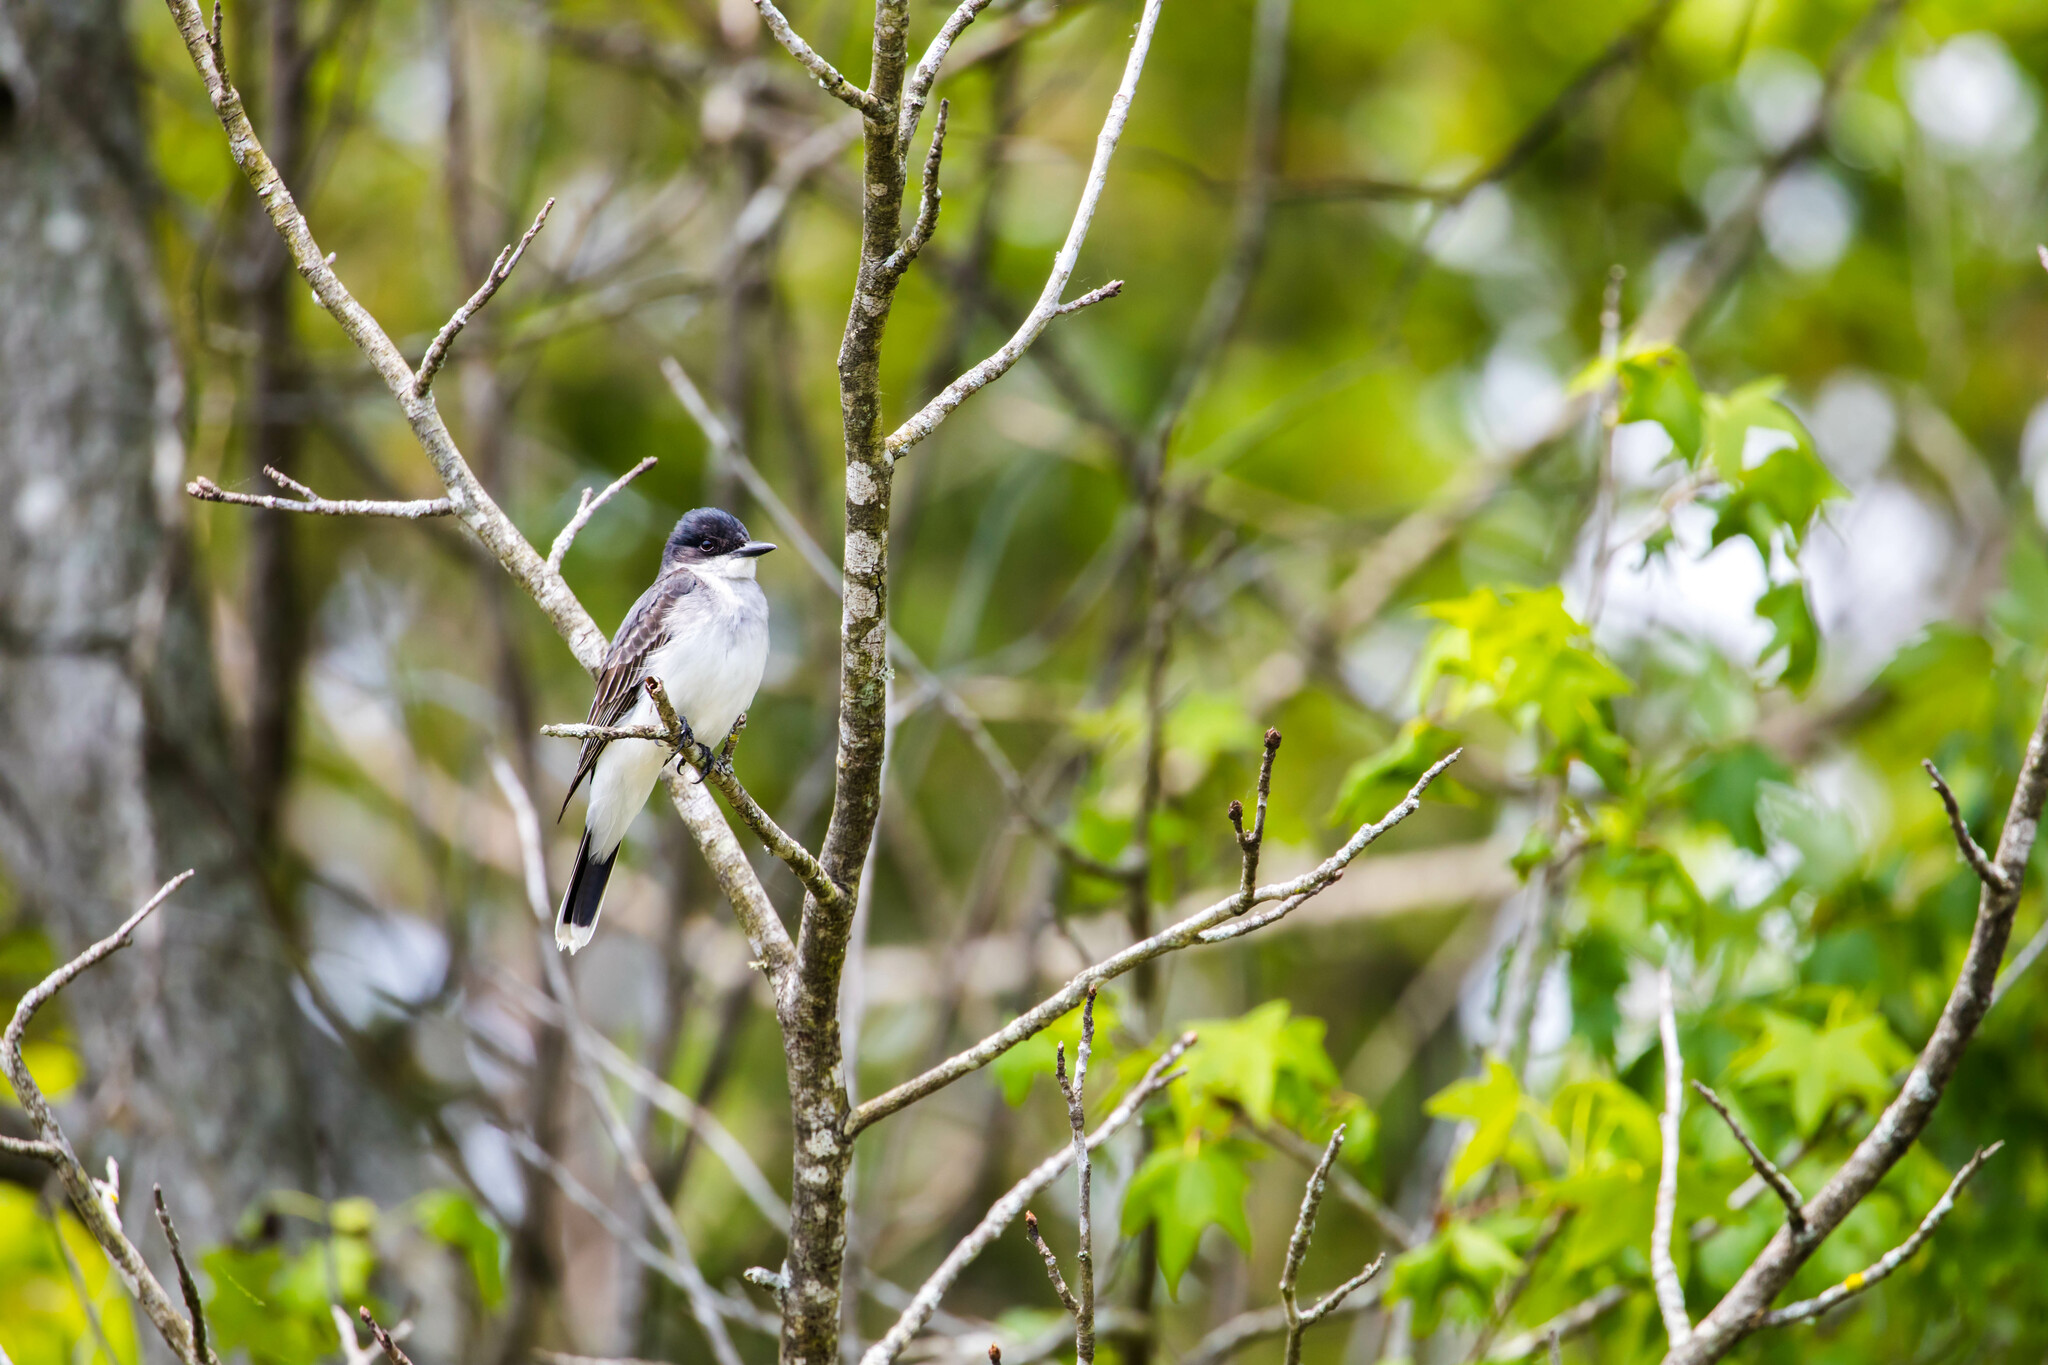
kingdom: Animalia
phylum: Chordata
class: Aves
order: Passeriformes
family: Tyrannidae
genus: Tyrannus
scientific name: Tyrannus tyrannus
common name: Eastern kingbird
